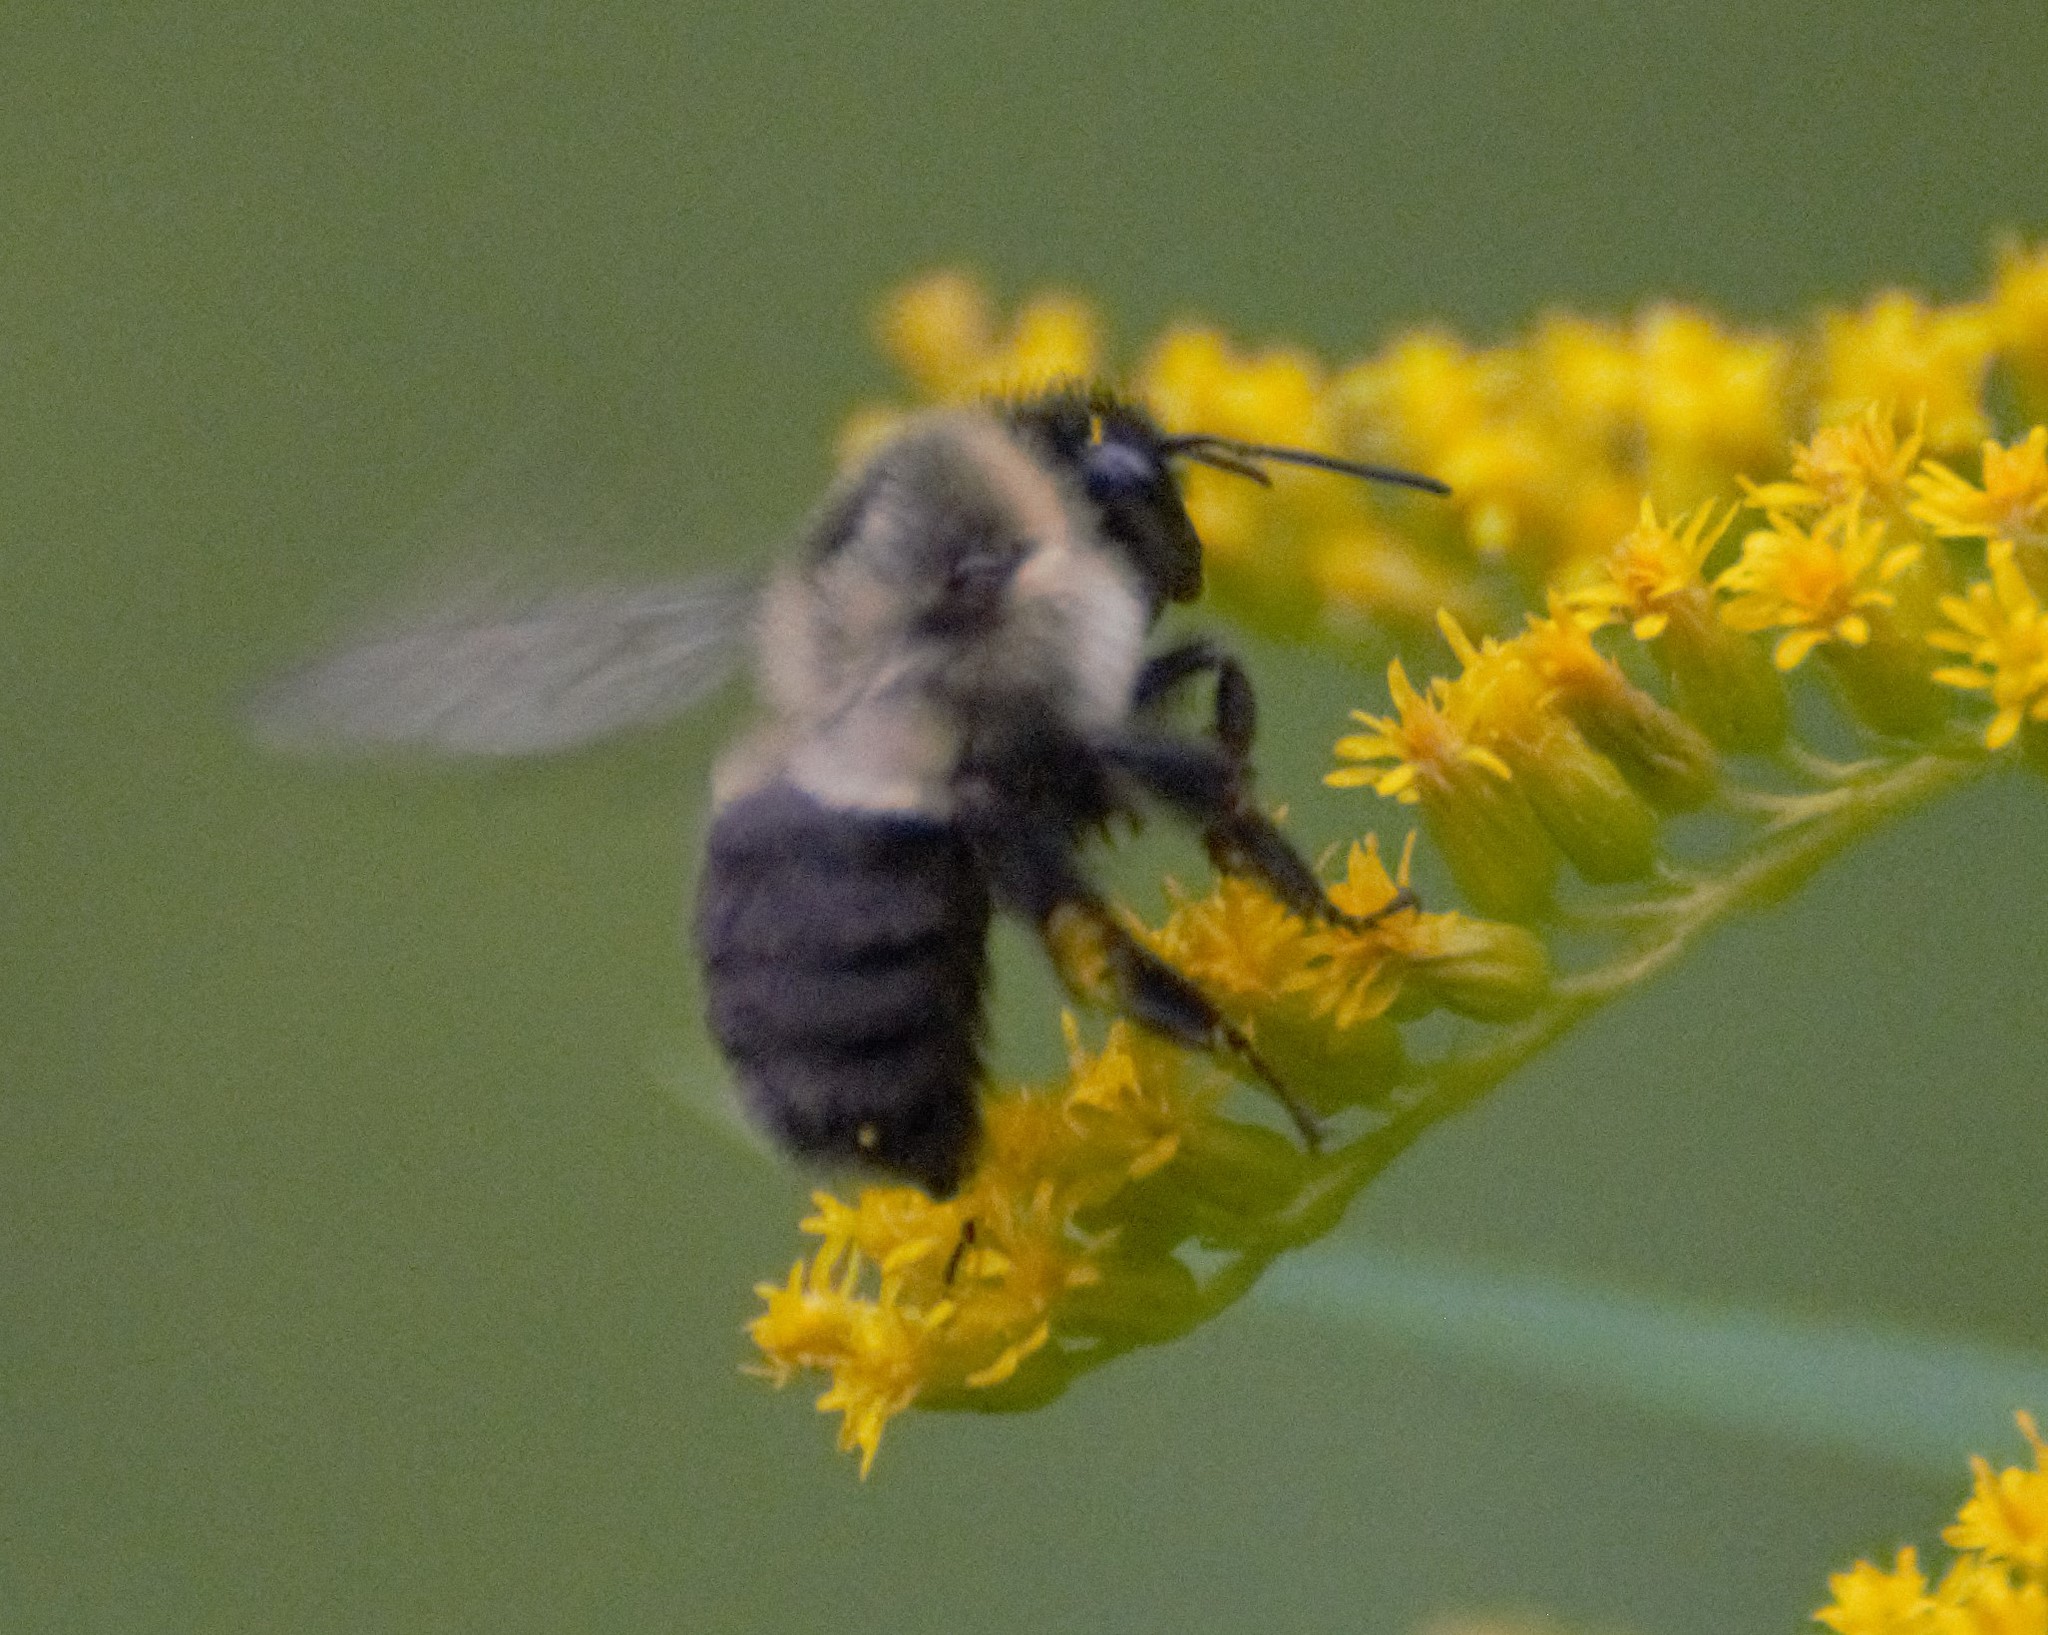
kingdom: Animalia
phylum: Arthropoda
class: Insecta
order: Hymenoptera
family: Apidae
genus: Bombus
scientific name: Bombus impatiens
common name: Common eastern bumble bee
